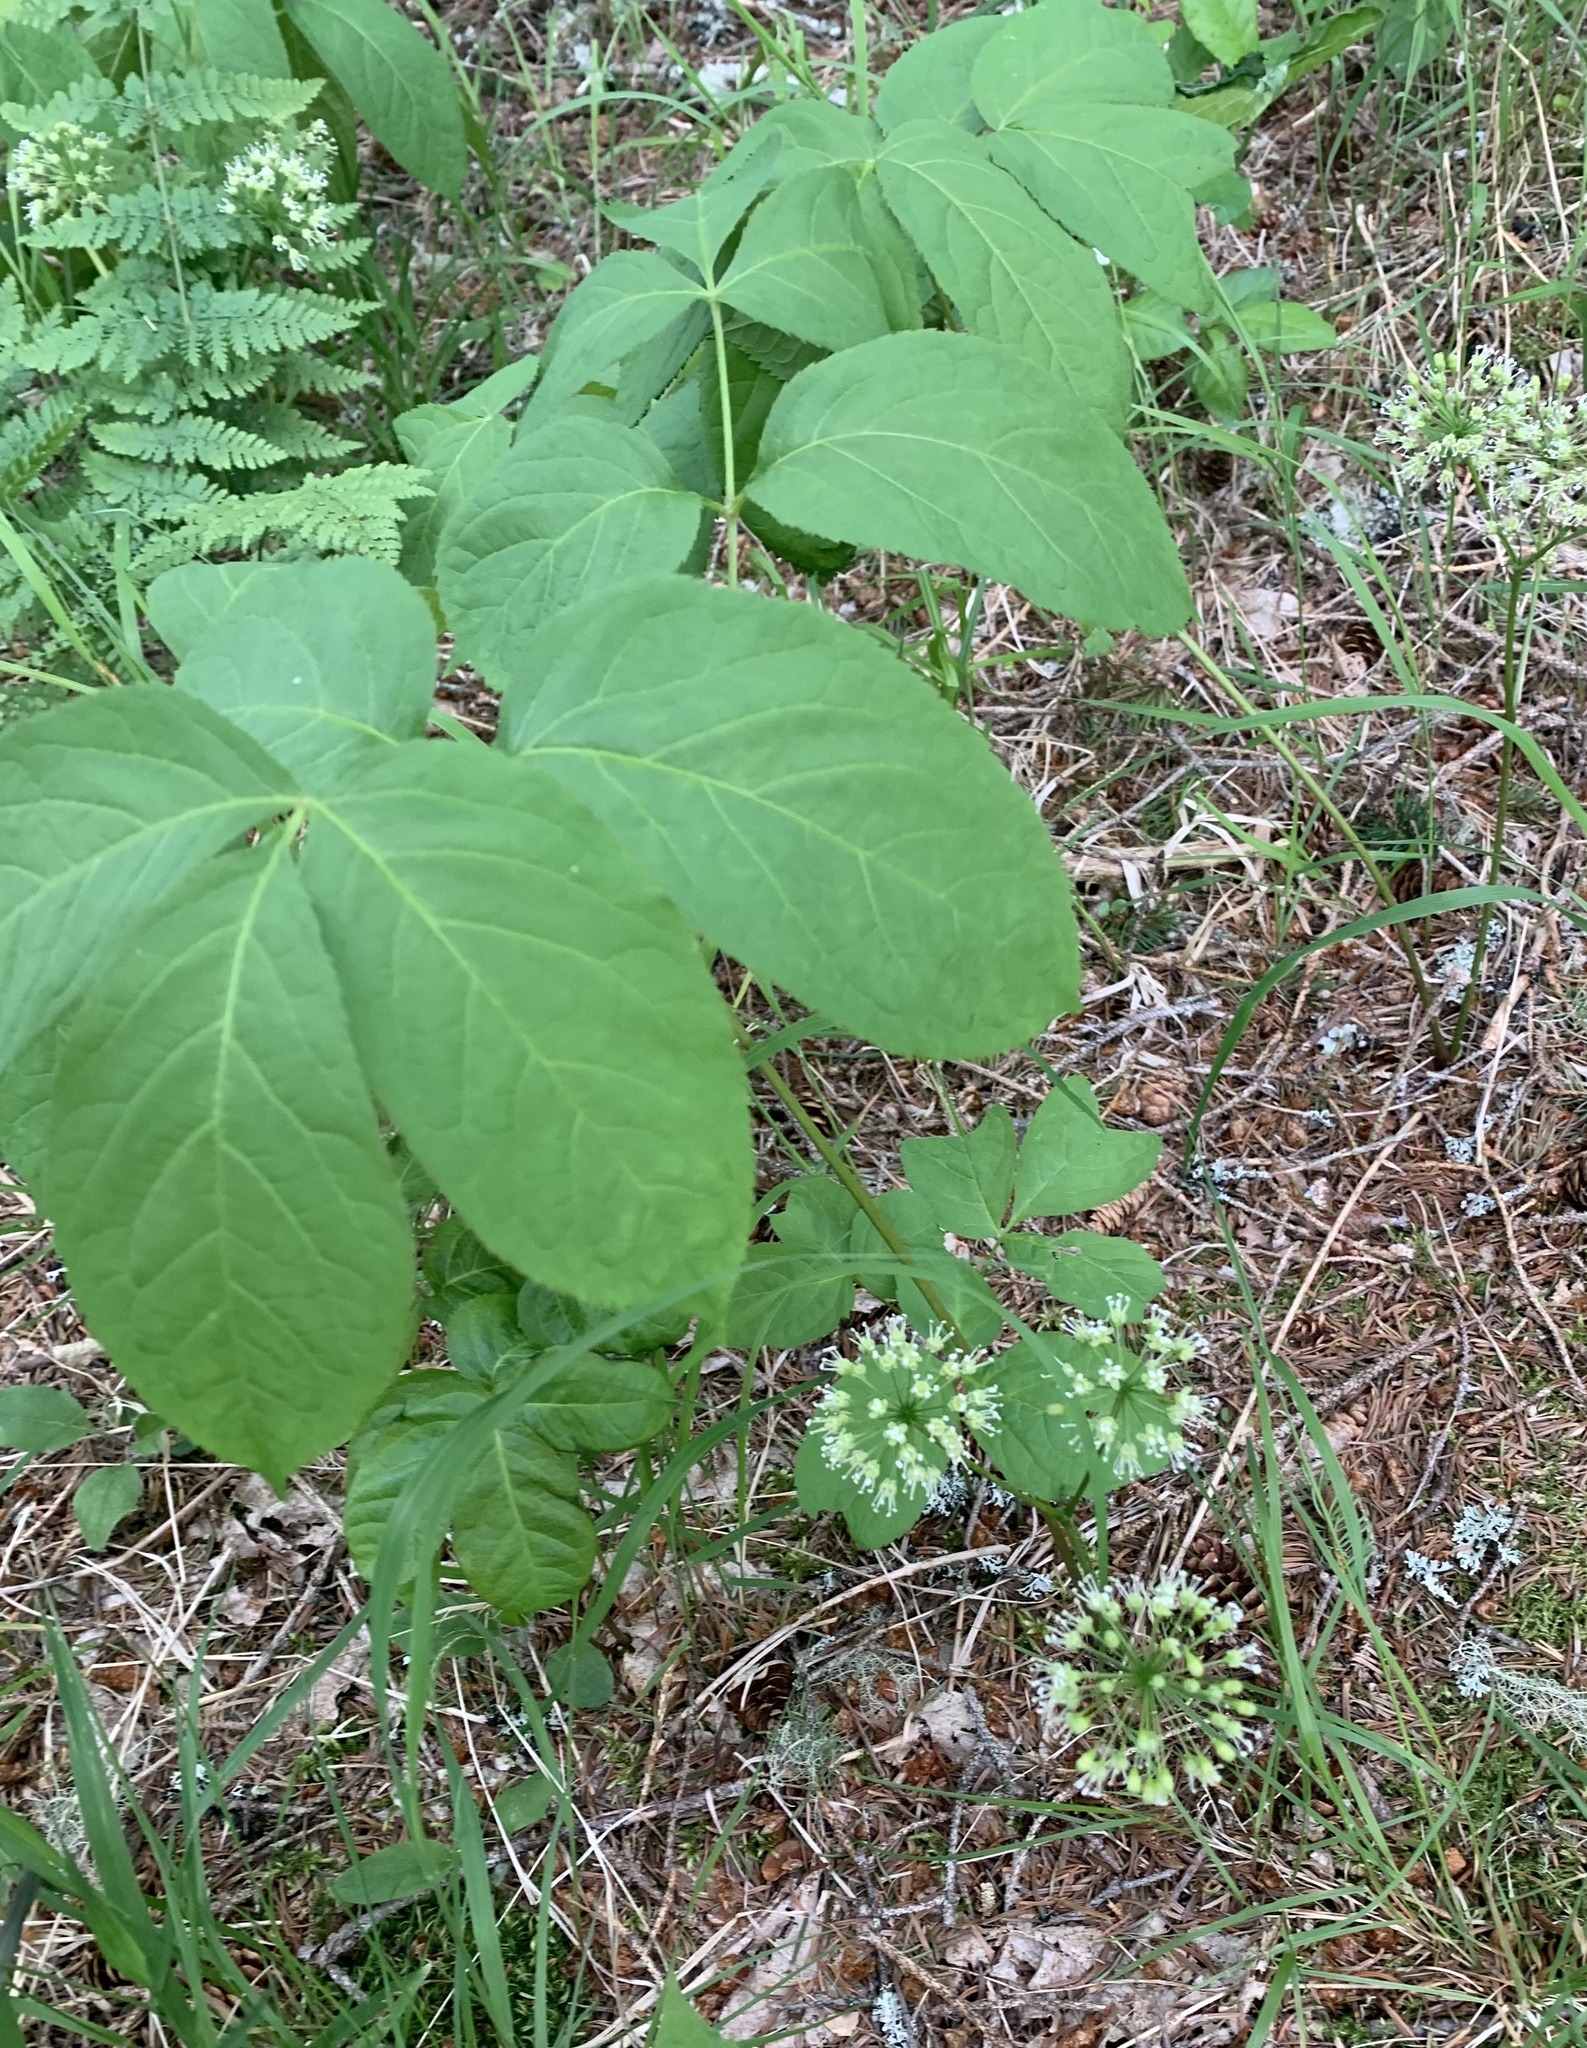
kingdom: Plantae
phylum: Tracheophyta
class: Magnoliopsida
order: Apiales
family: Araliaceae
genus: Aralia
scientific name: Aralia nudicaulis
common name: Wild sarsaparilla
